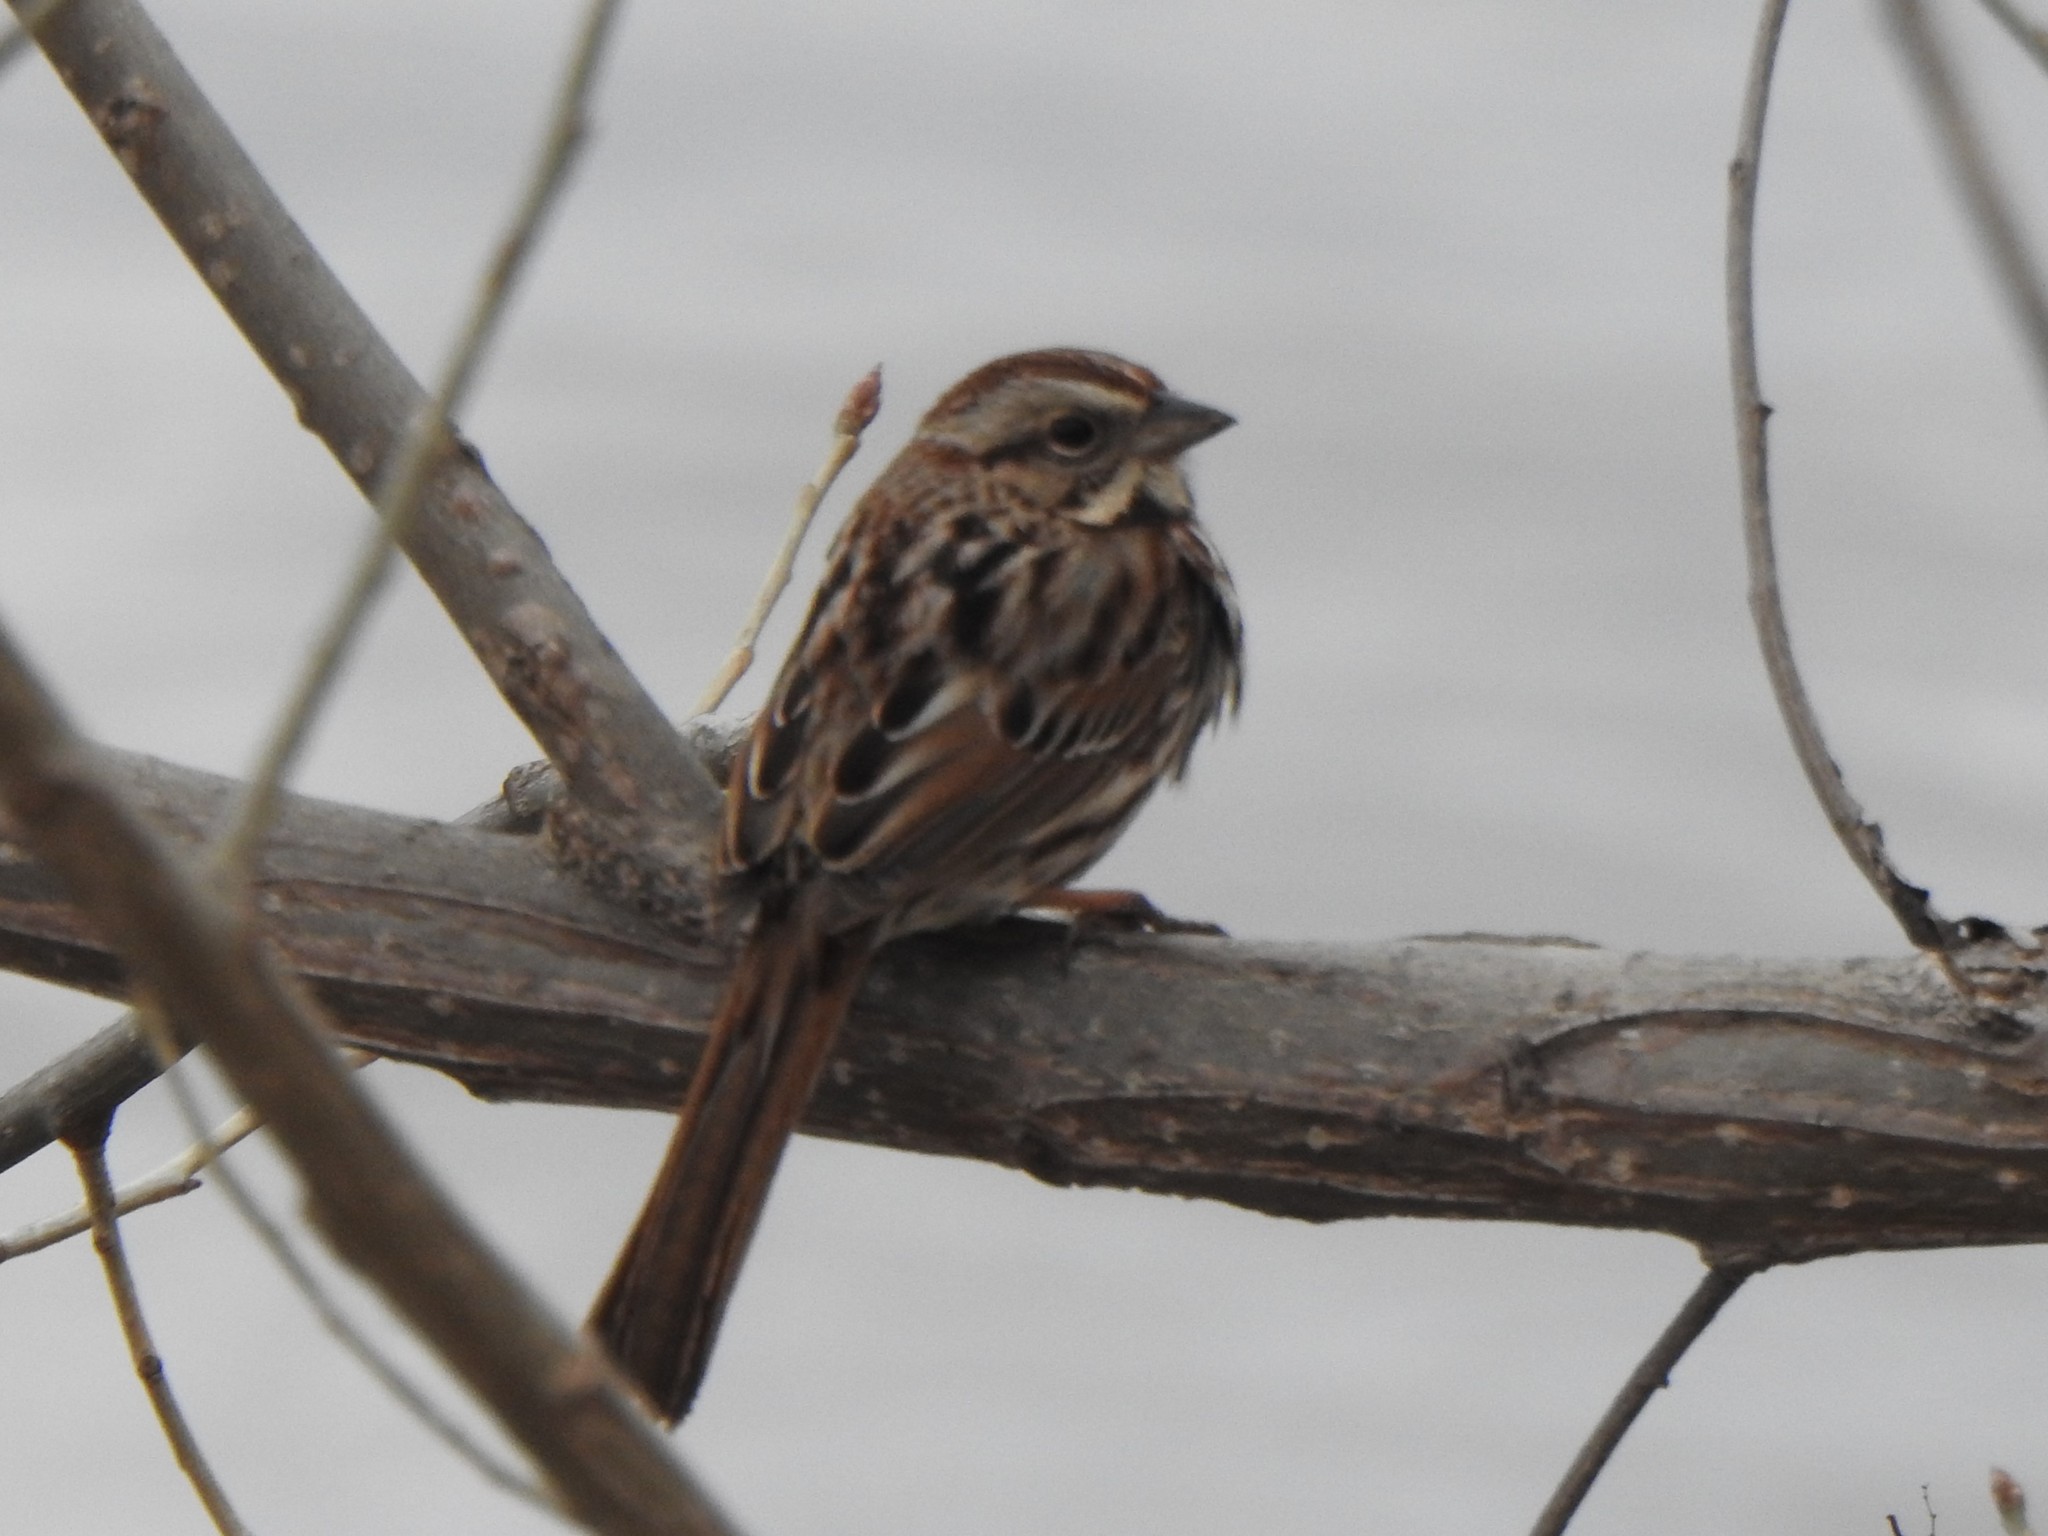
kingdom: Animalia
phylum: Chordata
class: Aves
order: Passeriformes
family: Passerellidae
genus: Melospiza
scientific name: Melospiza melodia
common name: Song sparrow
